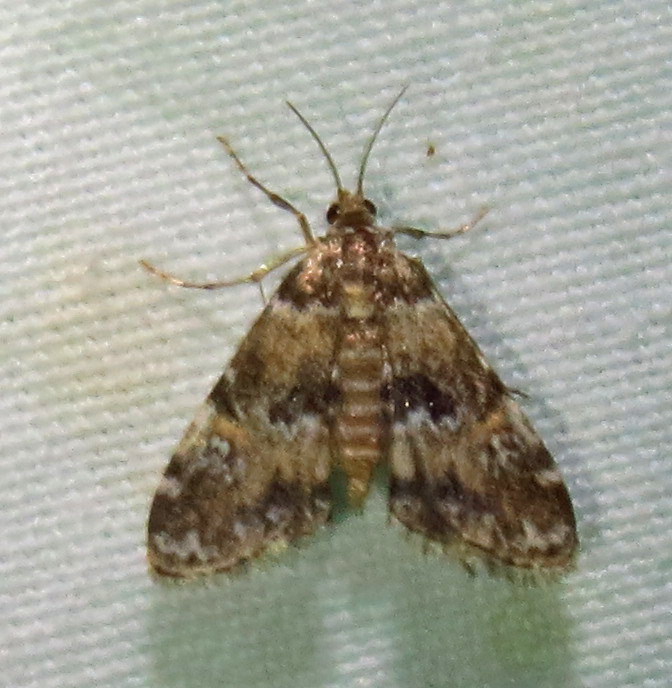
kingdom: Animalia
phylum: Arthropoda
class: Insecta
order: Lepidoptera
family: Crambidae
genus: Elophila
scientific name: Elophila obliteralis
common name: Waterlily leafcutter moth
